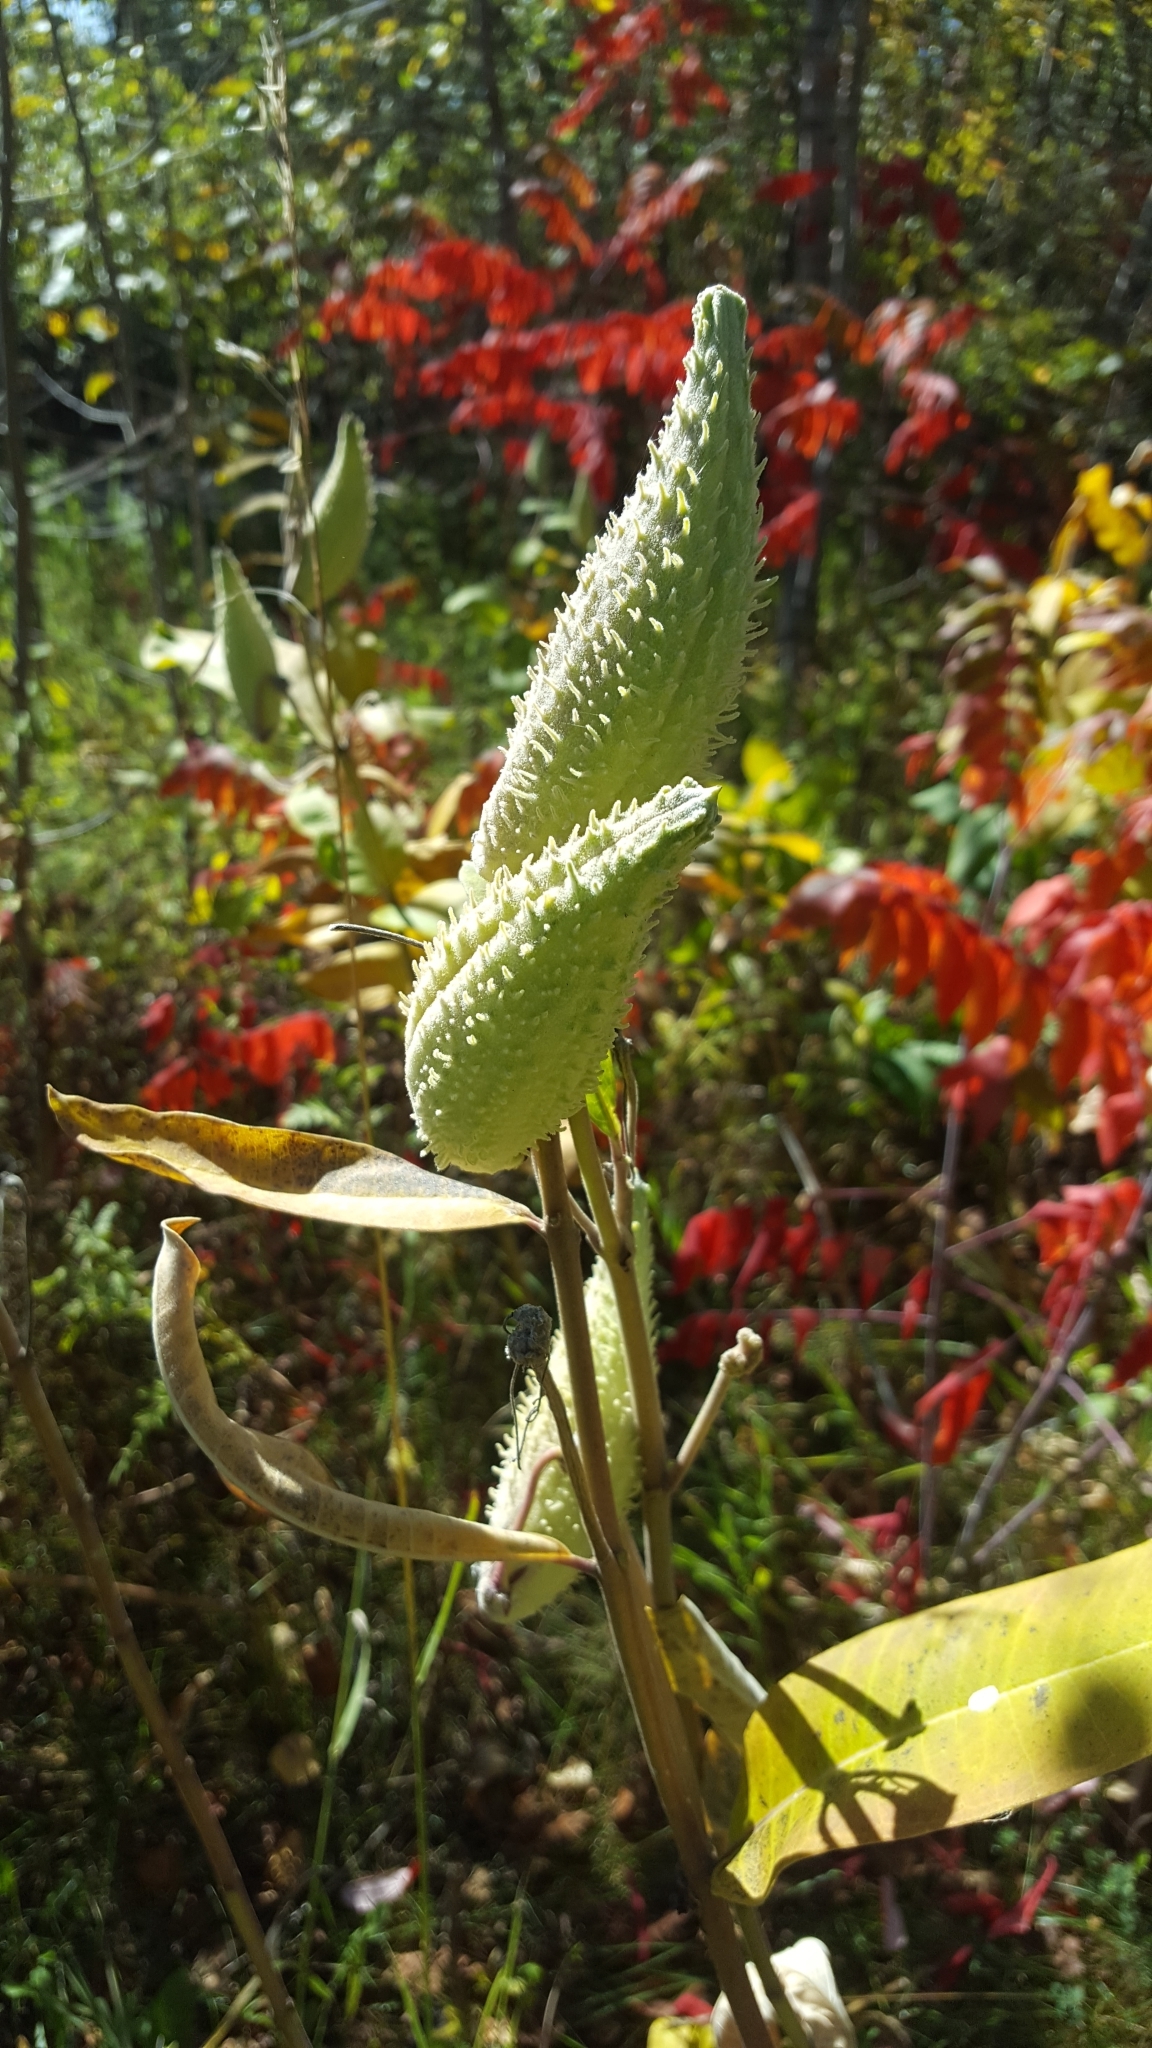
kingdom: Plantae
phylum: Tracheophyta
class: Magnoliopsida
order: Gentianales
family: Apocynaceae
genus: Asclepias
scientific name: Asclepias syriaca
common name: Common milkweed
